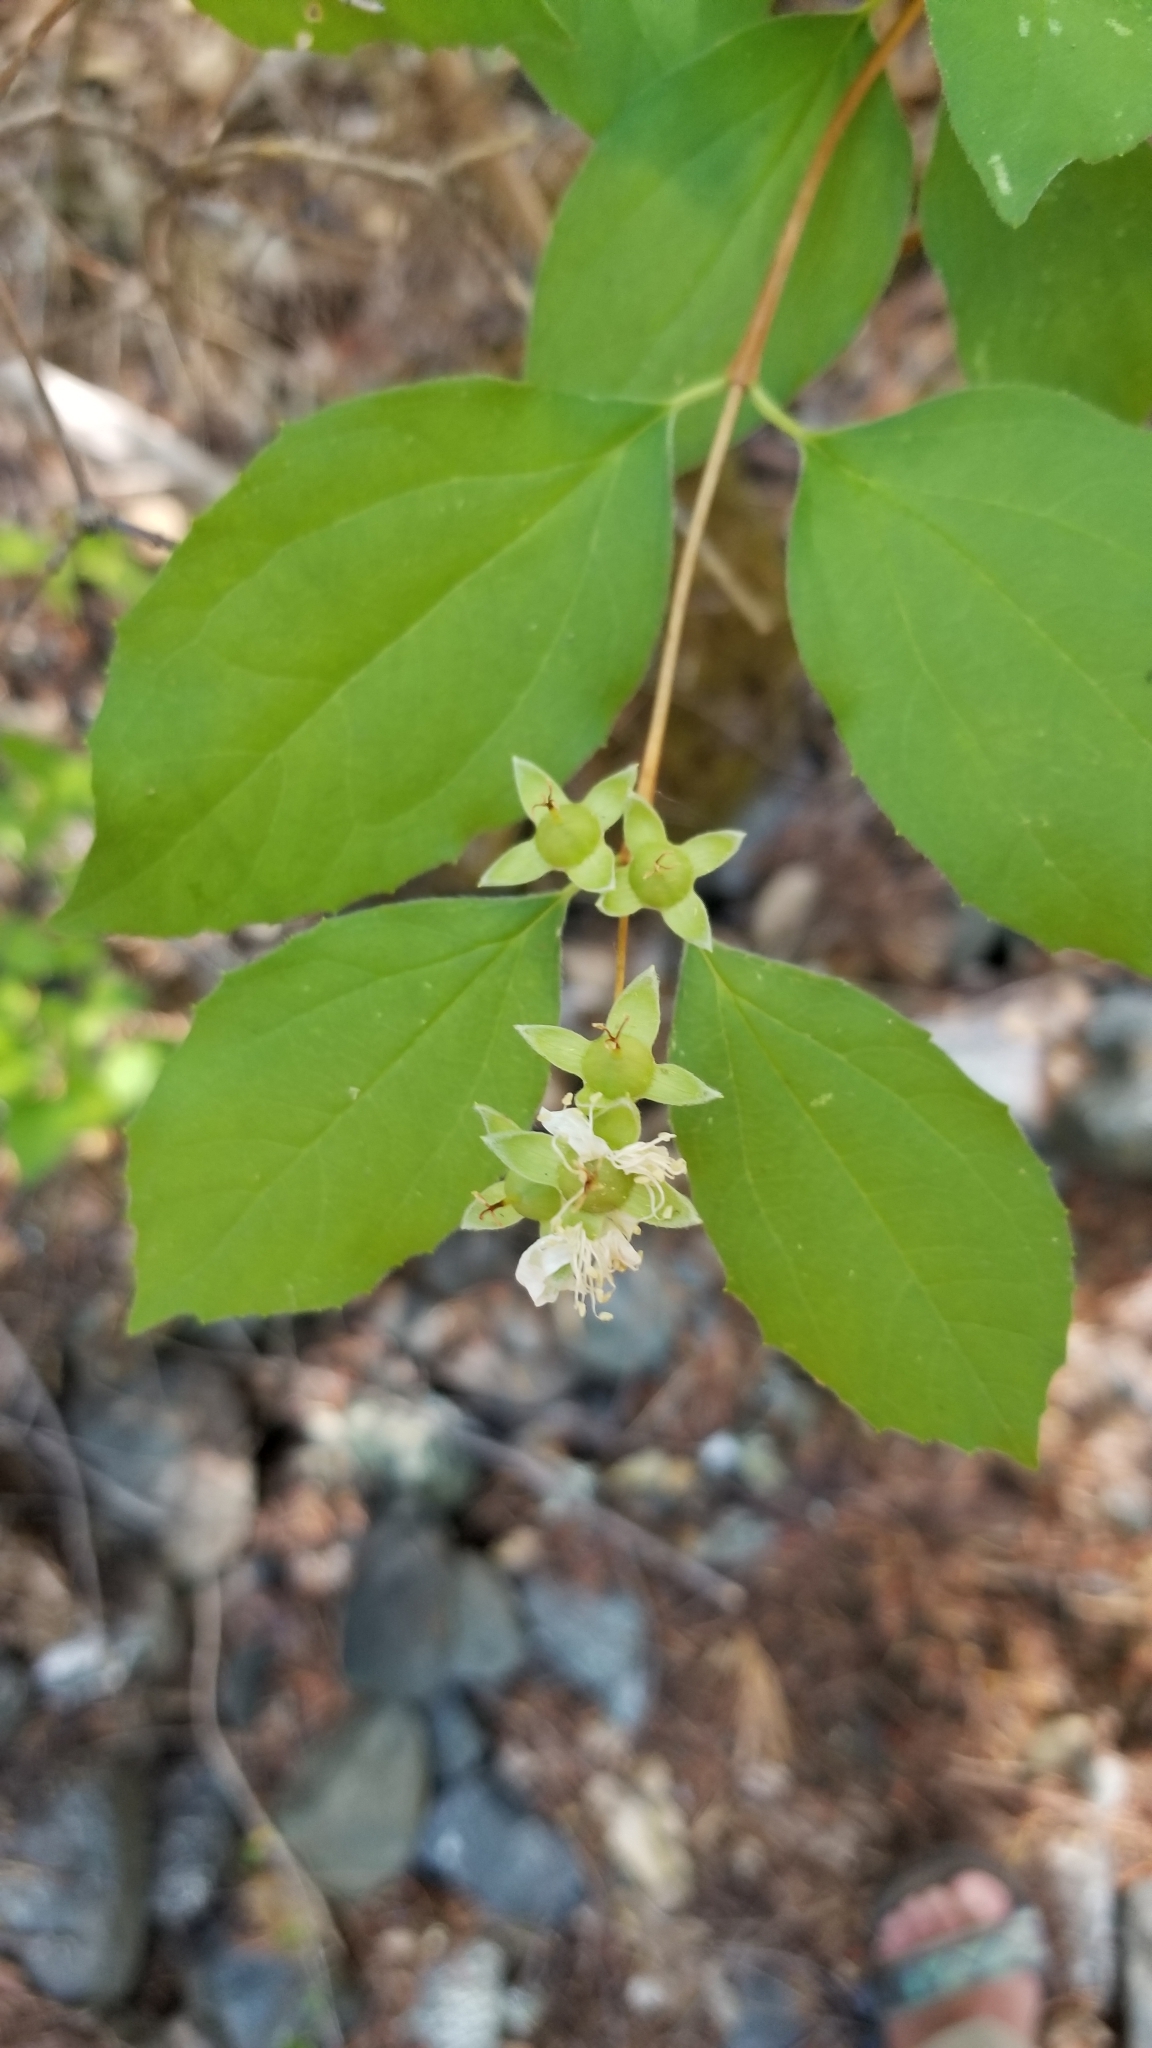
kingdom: Plantae
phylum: Tracheophyta
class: Magnoliopsida
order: Cornales
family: Hydrangeaceae
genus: Philadelphus
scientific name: Philadelphus lewisii
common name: Lewis's mock orange
